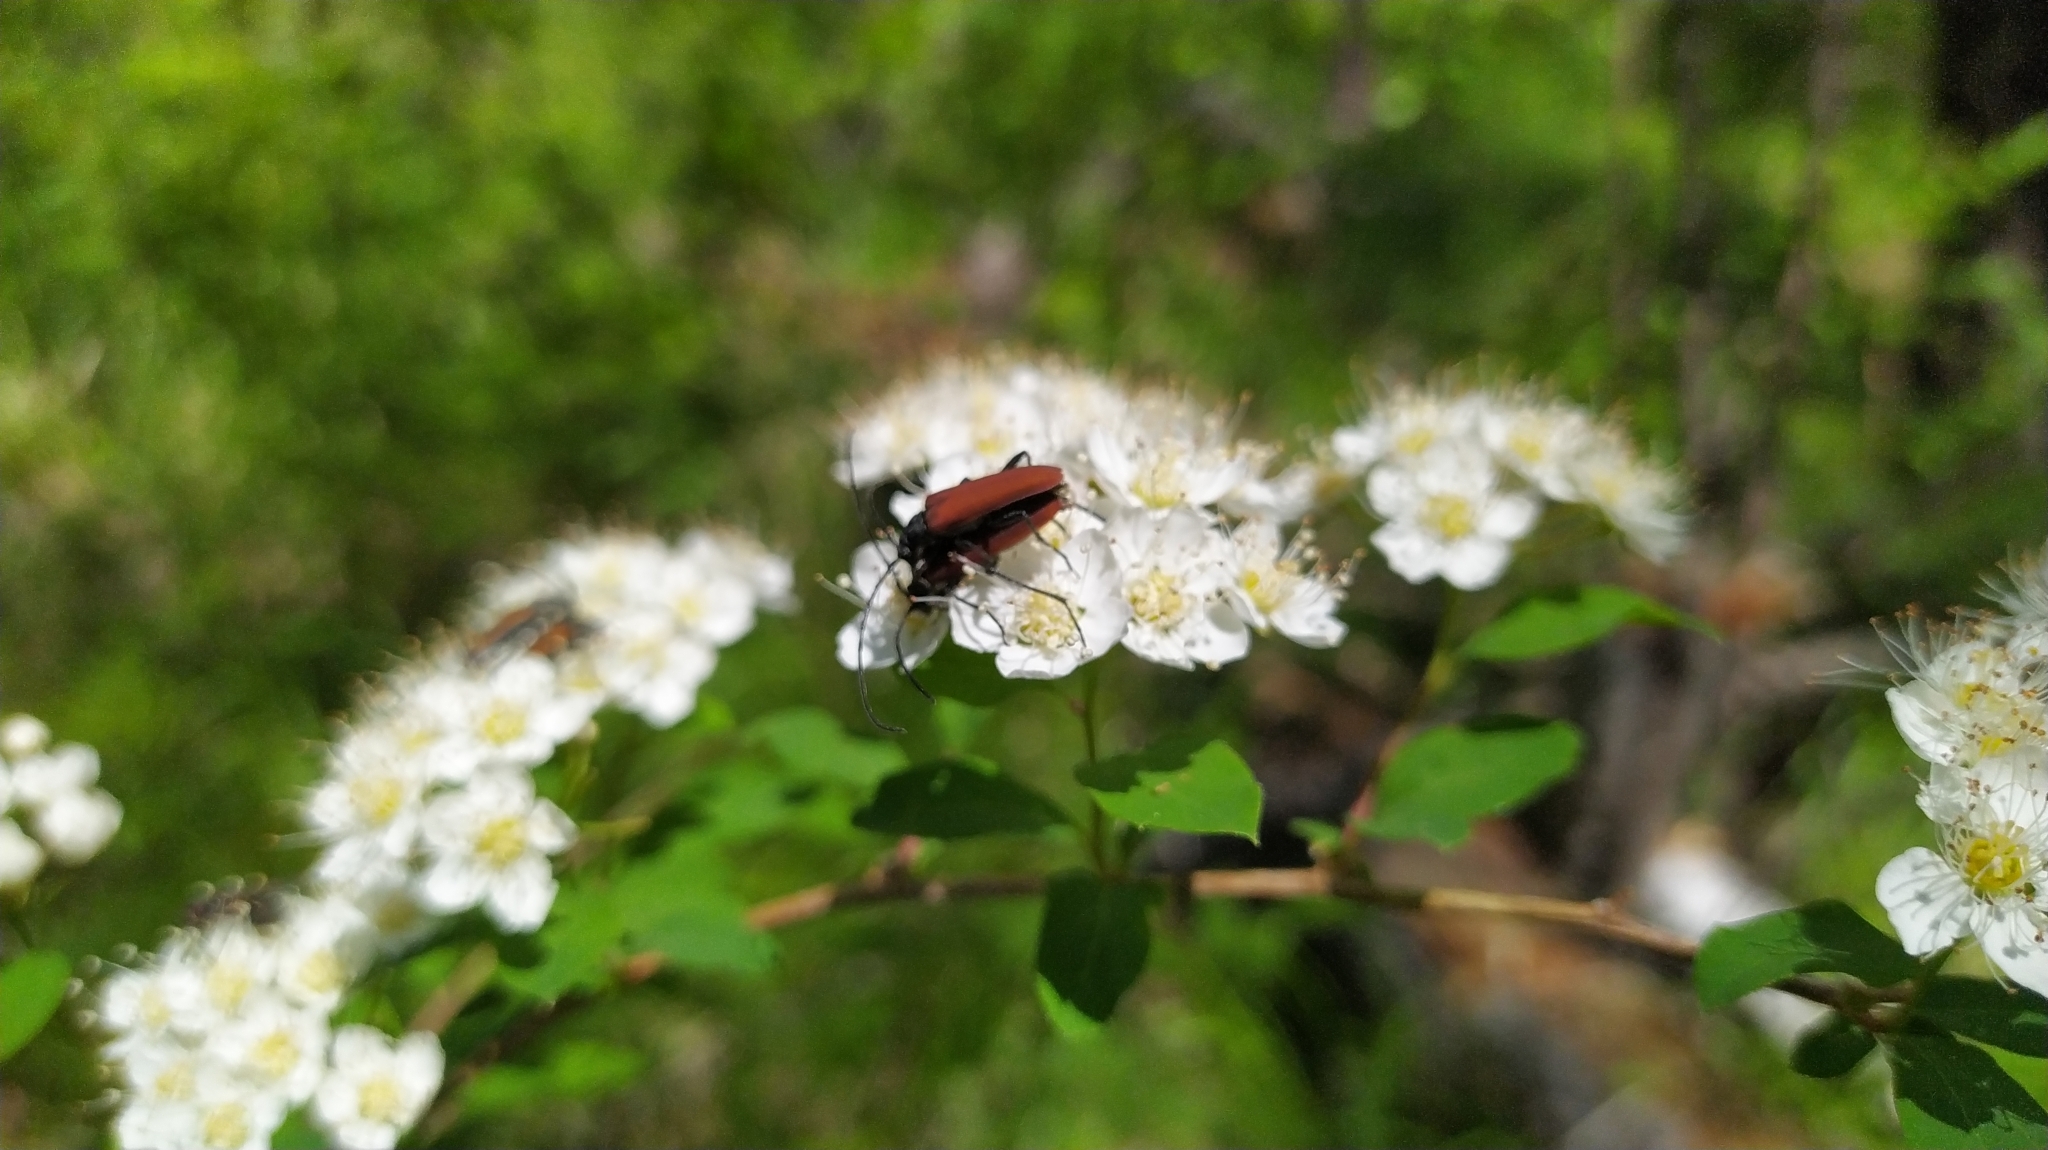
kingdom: Animalia
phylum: Arthropoda
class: Insecta
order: Coleoptera
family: Cerambycidae
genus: Nivellia
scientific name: Nivellia sanguinosa
